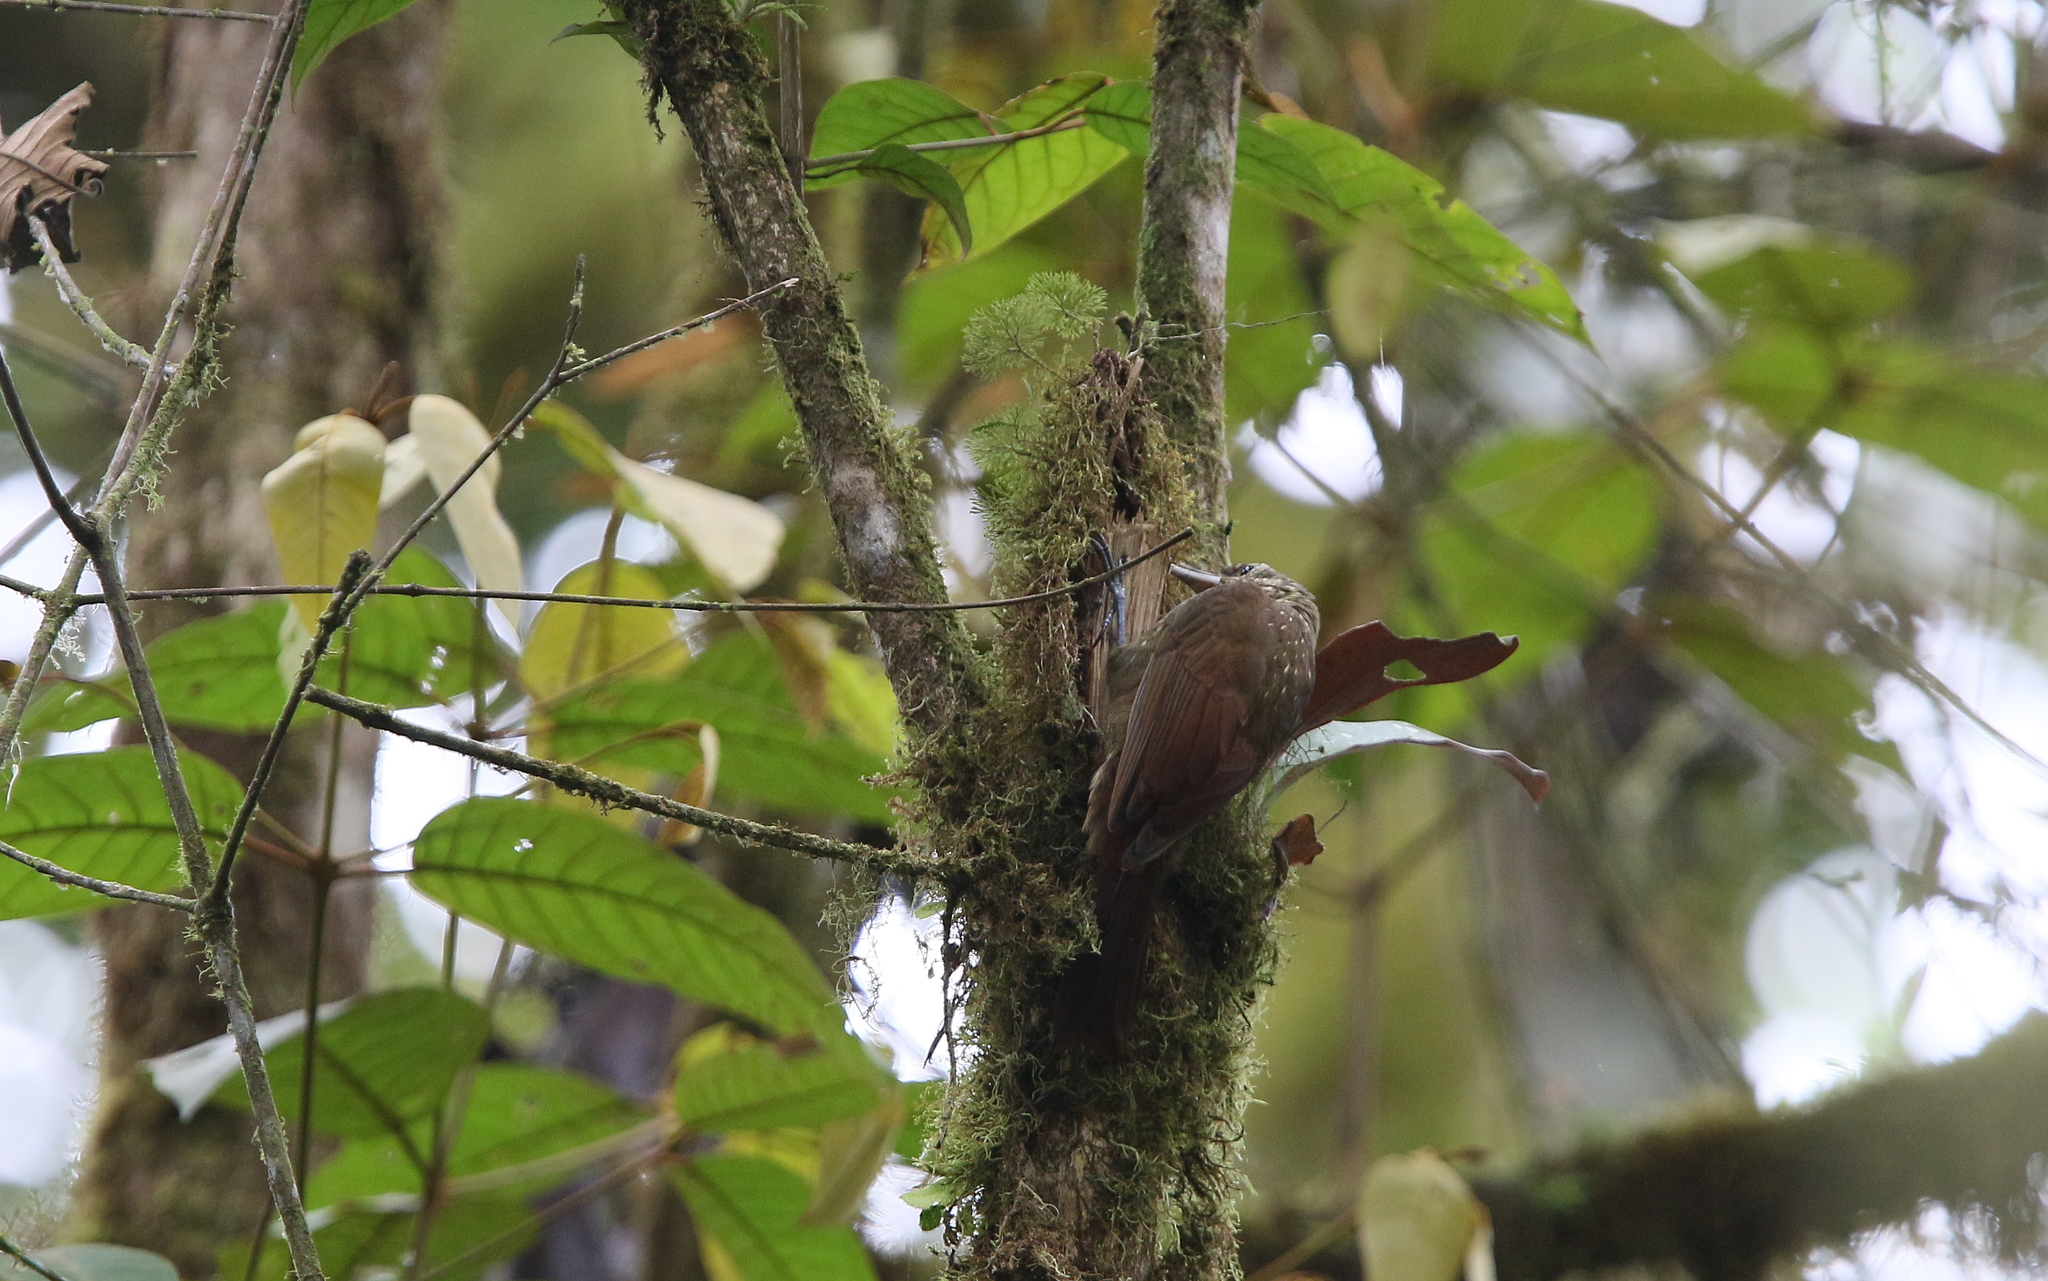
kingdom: Animalia
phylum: Chordata
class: Aves
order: Passeriformes
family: Furnariidae
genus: Xiphorhynchus
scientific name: Xiphorhynchus erythropygius
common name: Spotted woodcreeper
